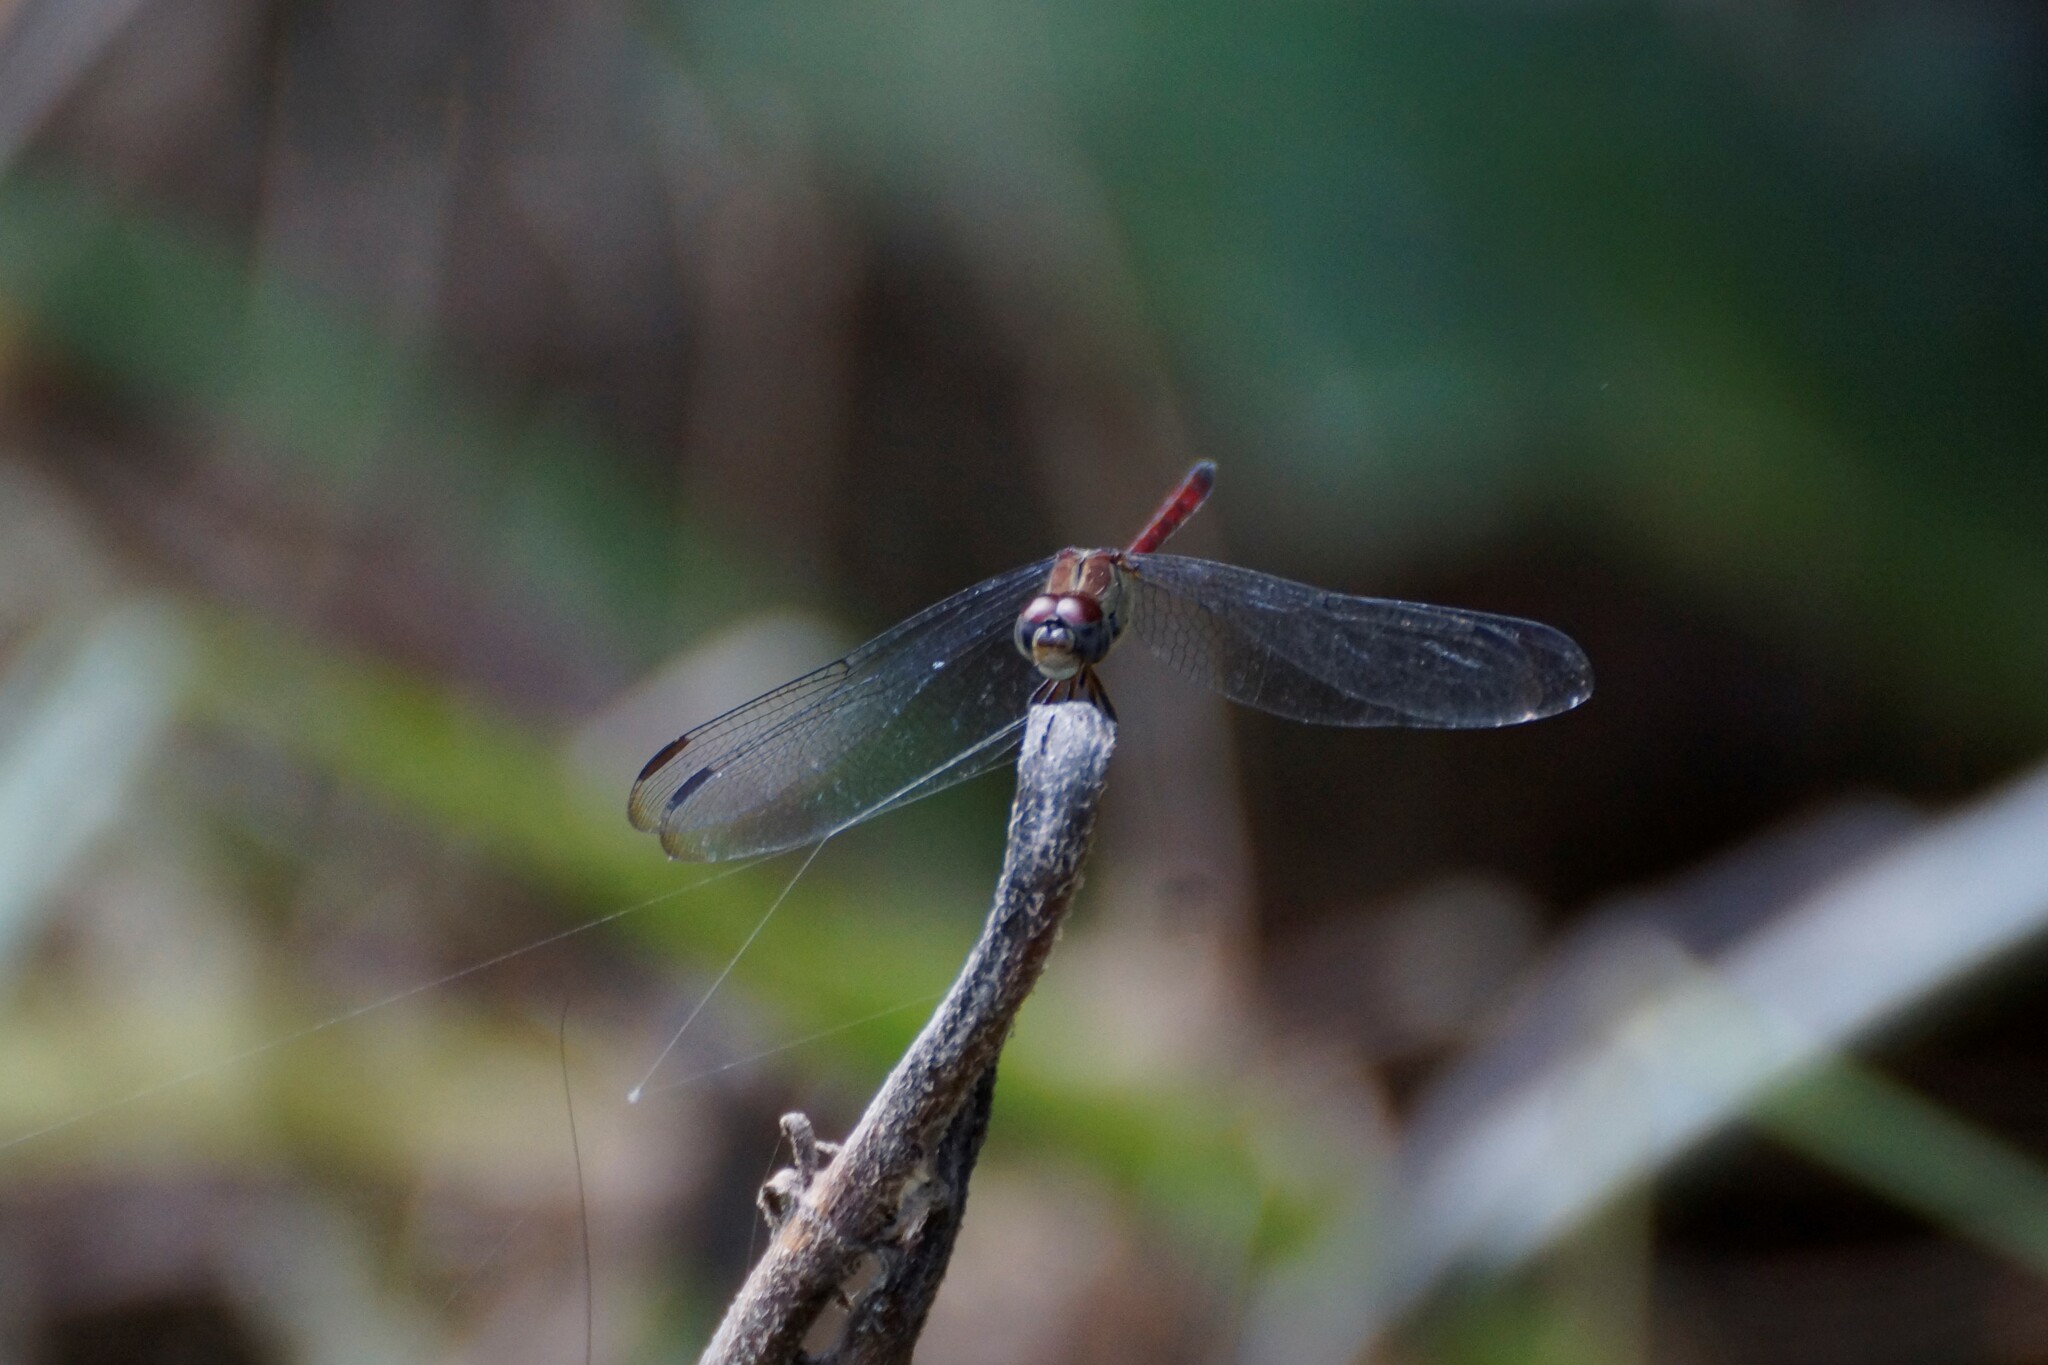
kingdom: Animalia
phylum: Arthropoda
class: Insecta
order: Odonata
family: Libellulidae
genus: Lathrecista
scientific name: Lathrecista asiatica
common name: Scarlet grenadier
